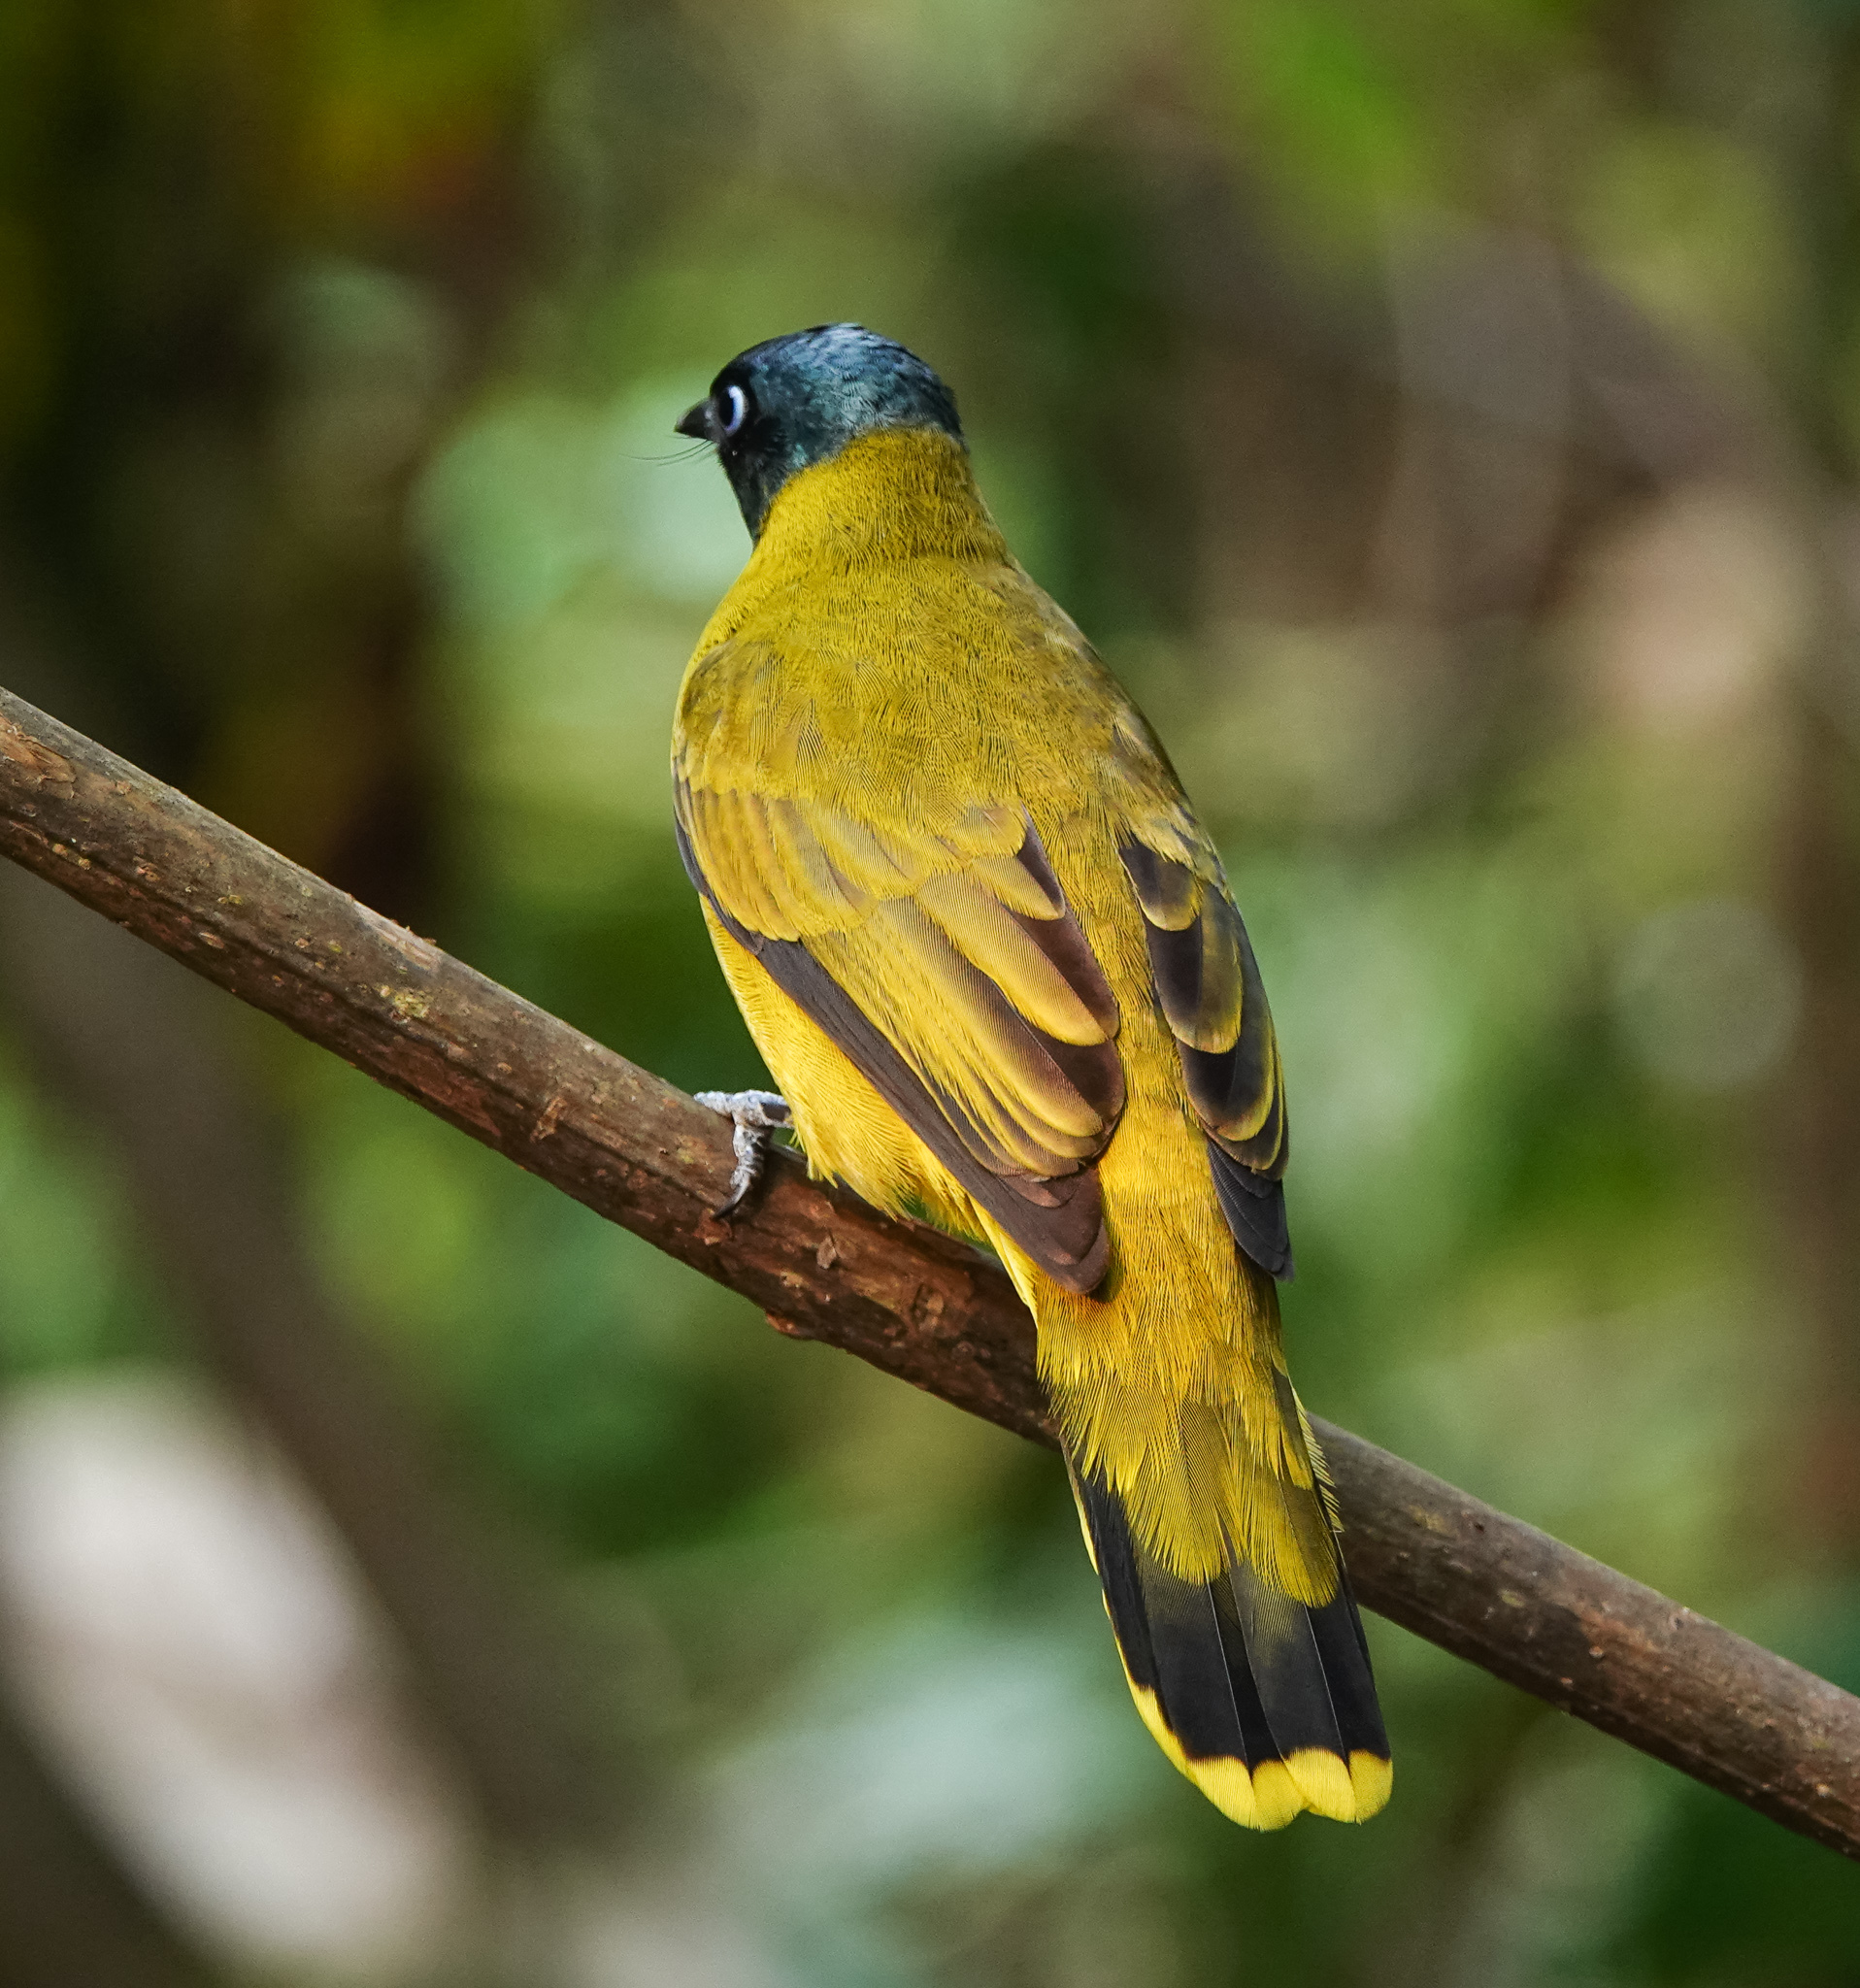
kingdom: Animalia
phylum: Chordata
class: Aves
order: Passeriformes
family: Pycnonotidae
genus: Microtarsus
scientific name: Microtarsus
